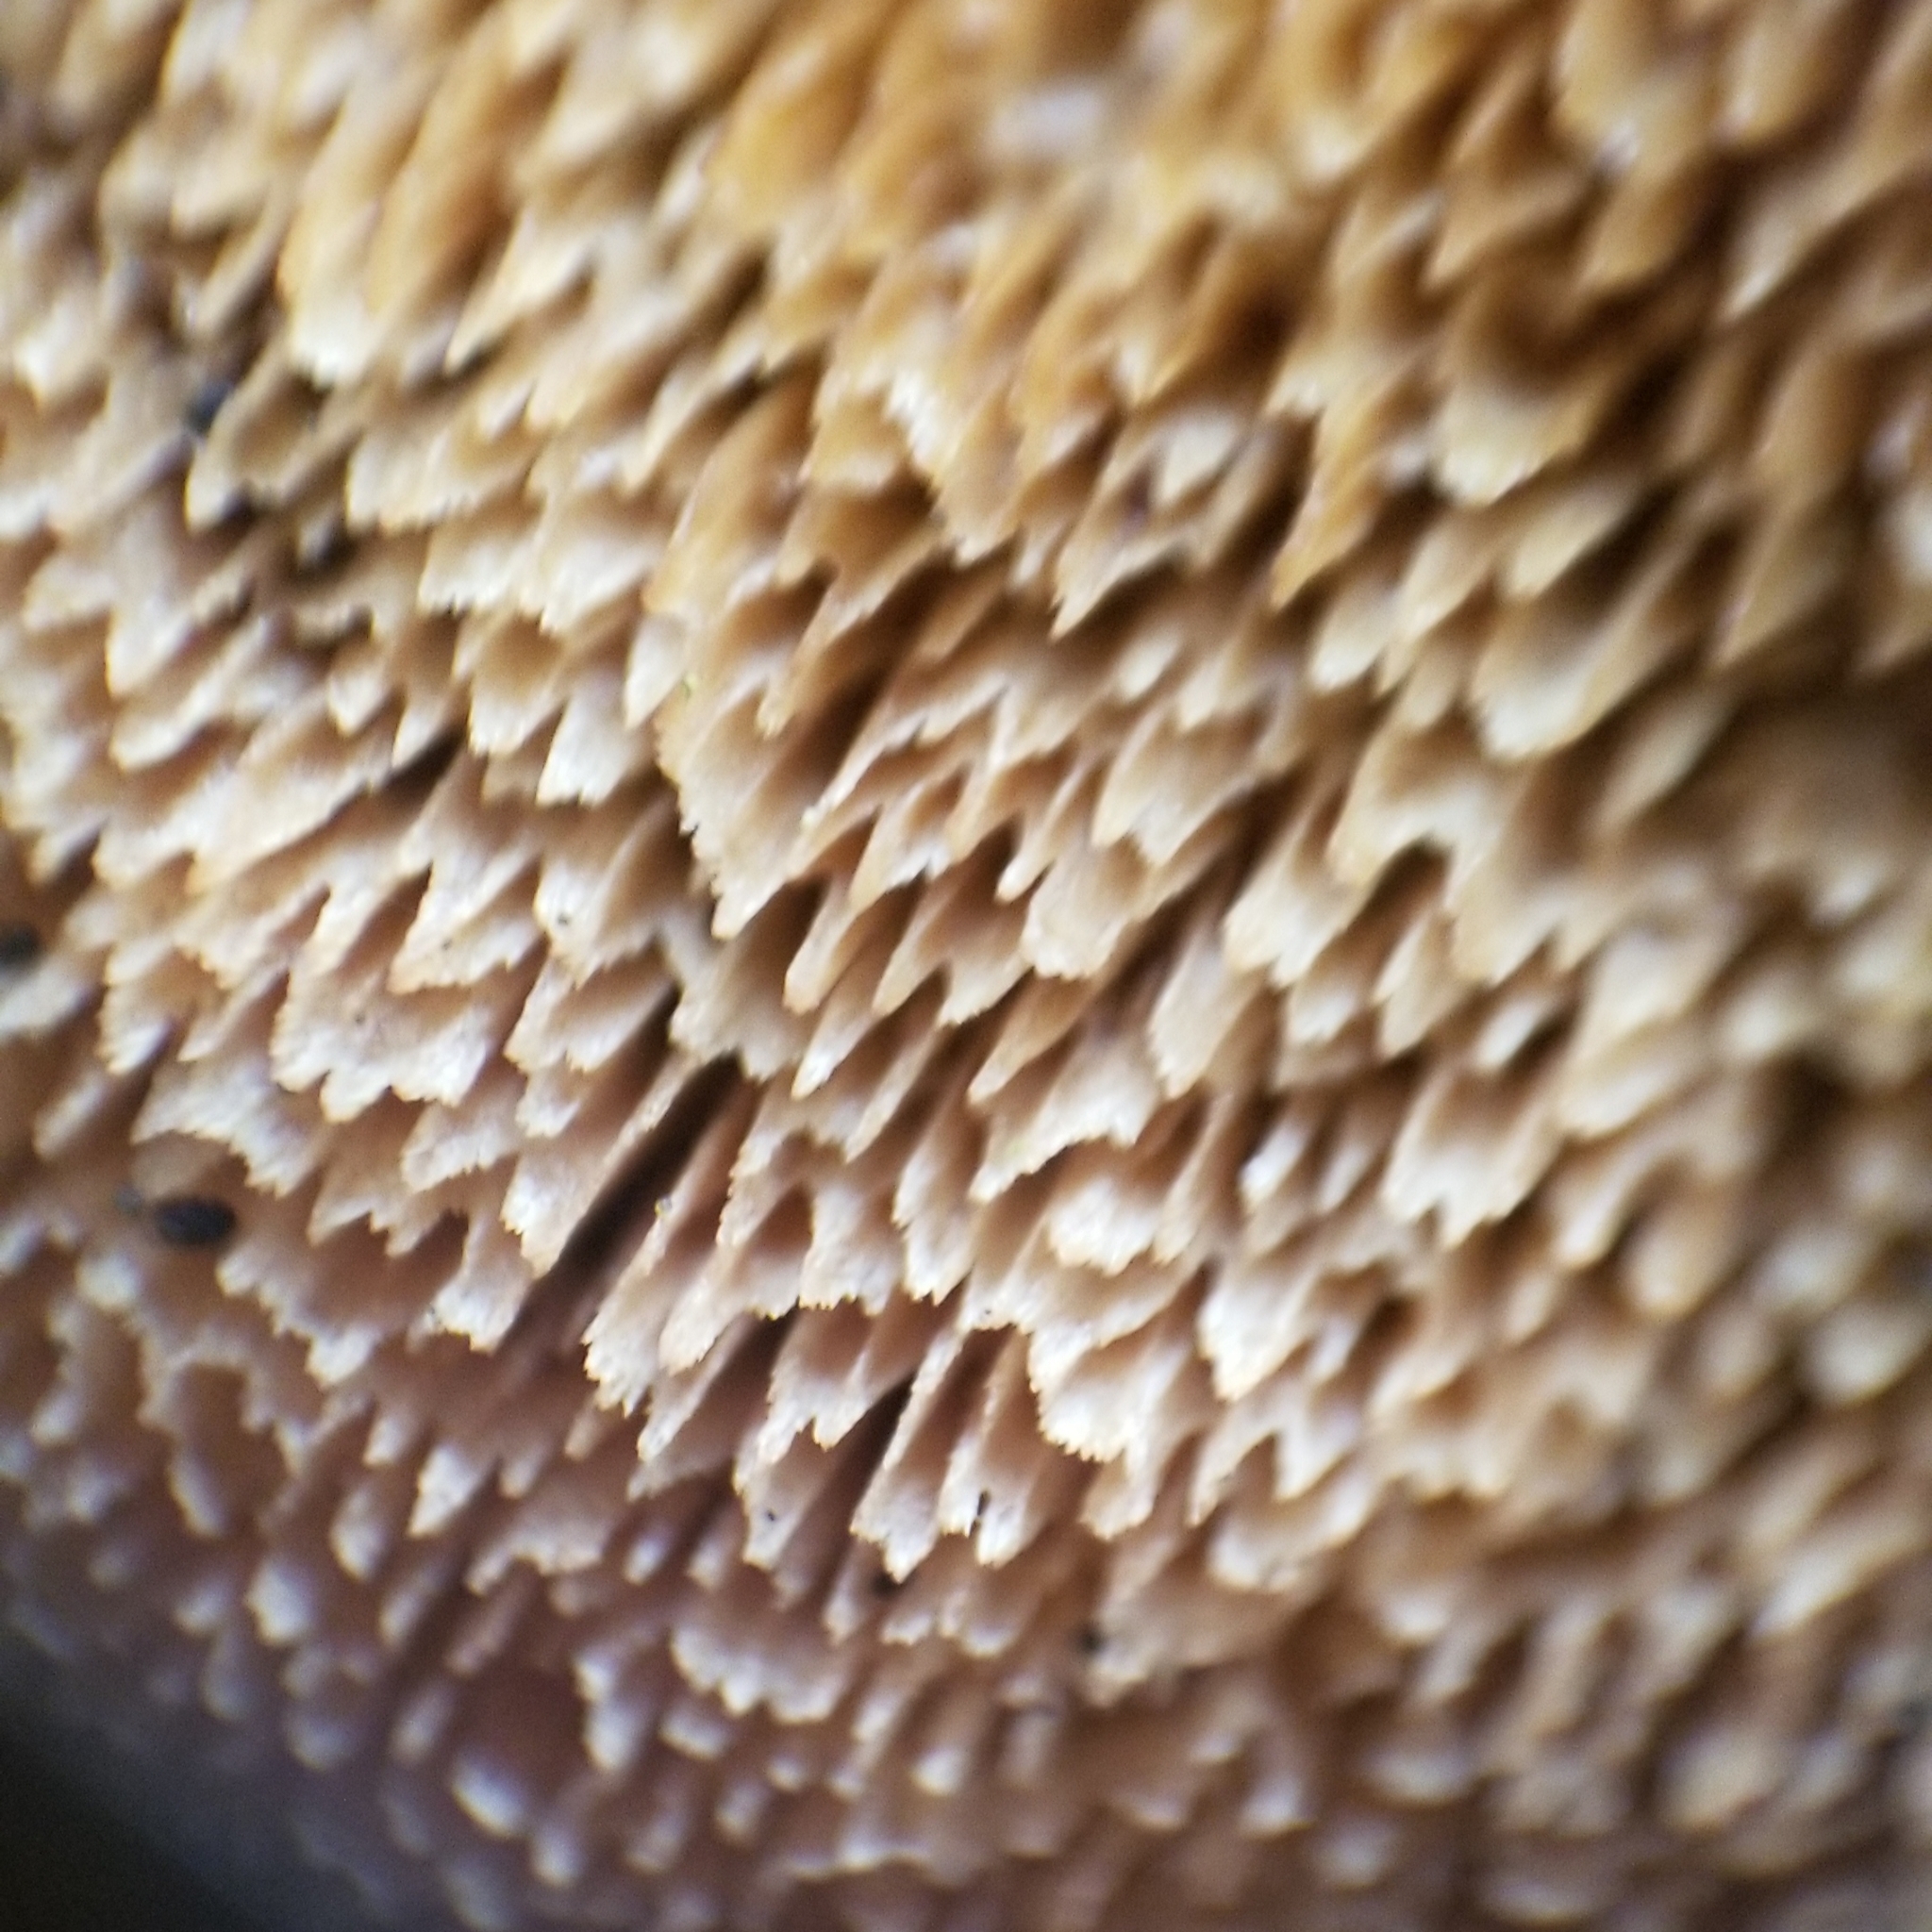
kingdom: Fungi
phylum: Basidiomycota
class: Agaricomycetes
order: Polyporales
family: Steccherinaceae
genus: Steccherinum
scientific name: Steccherinum ochraceum
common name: Ochre spreading tooth
